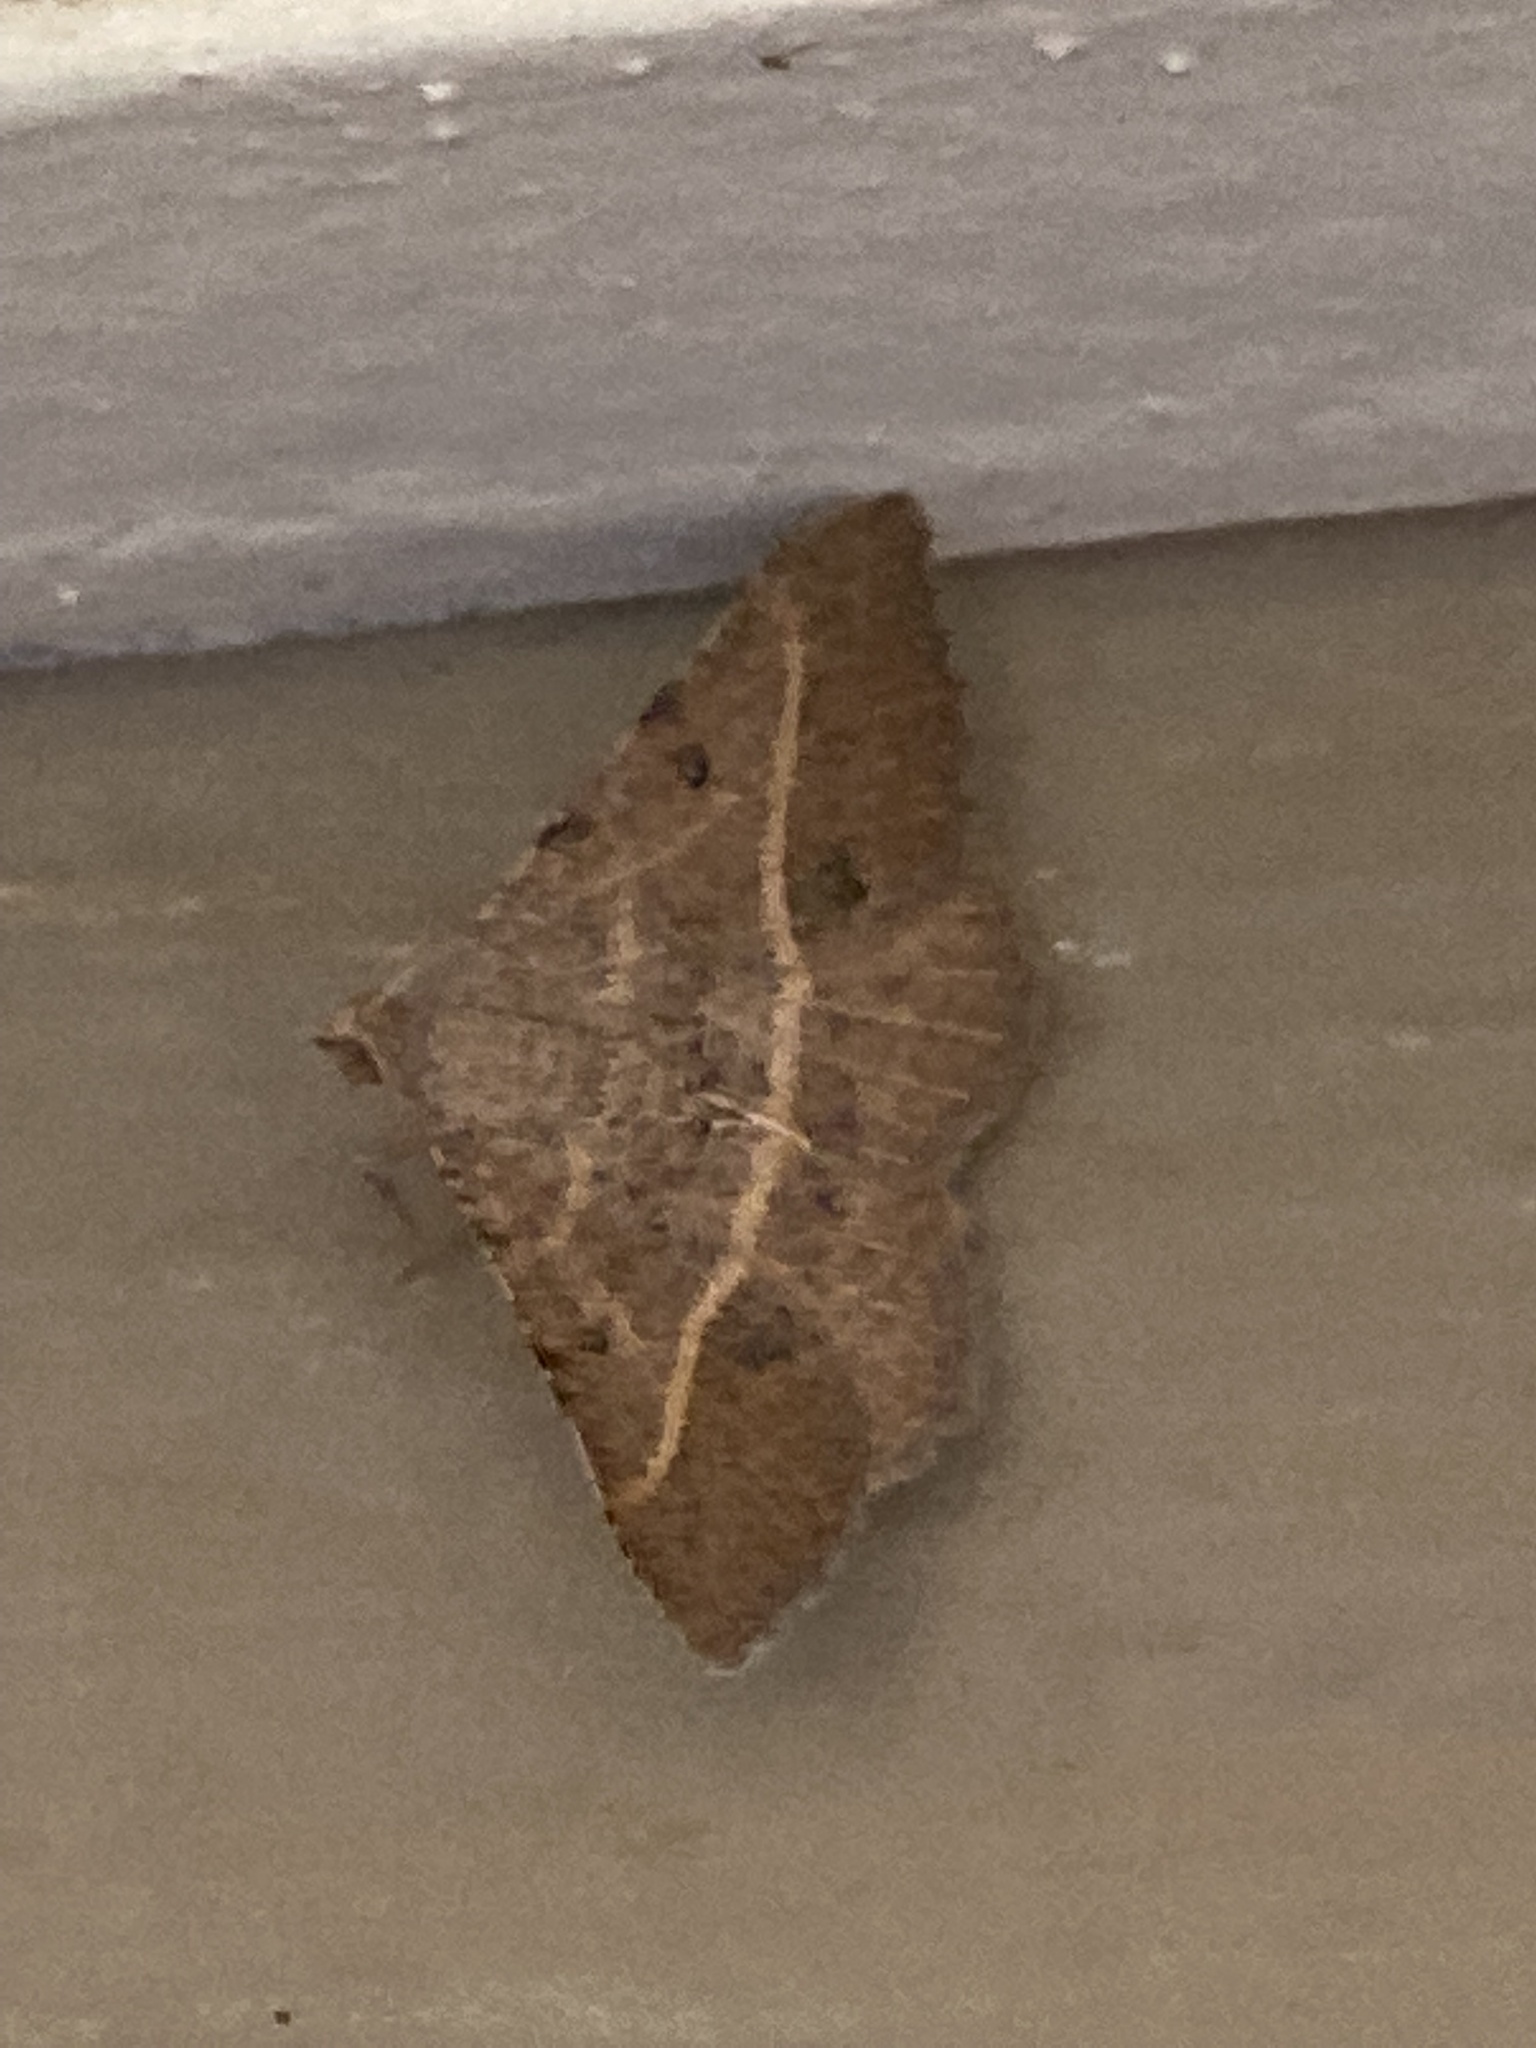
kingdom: Animalia
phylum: Arthropoda
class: Insecta
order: Lepidoptera
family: Geometridae
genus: Digrammia
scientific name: Digrammia irrorata
